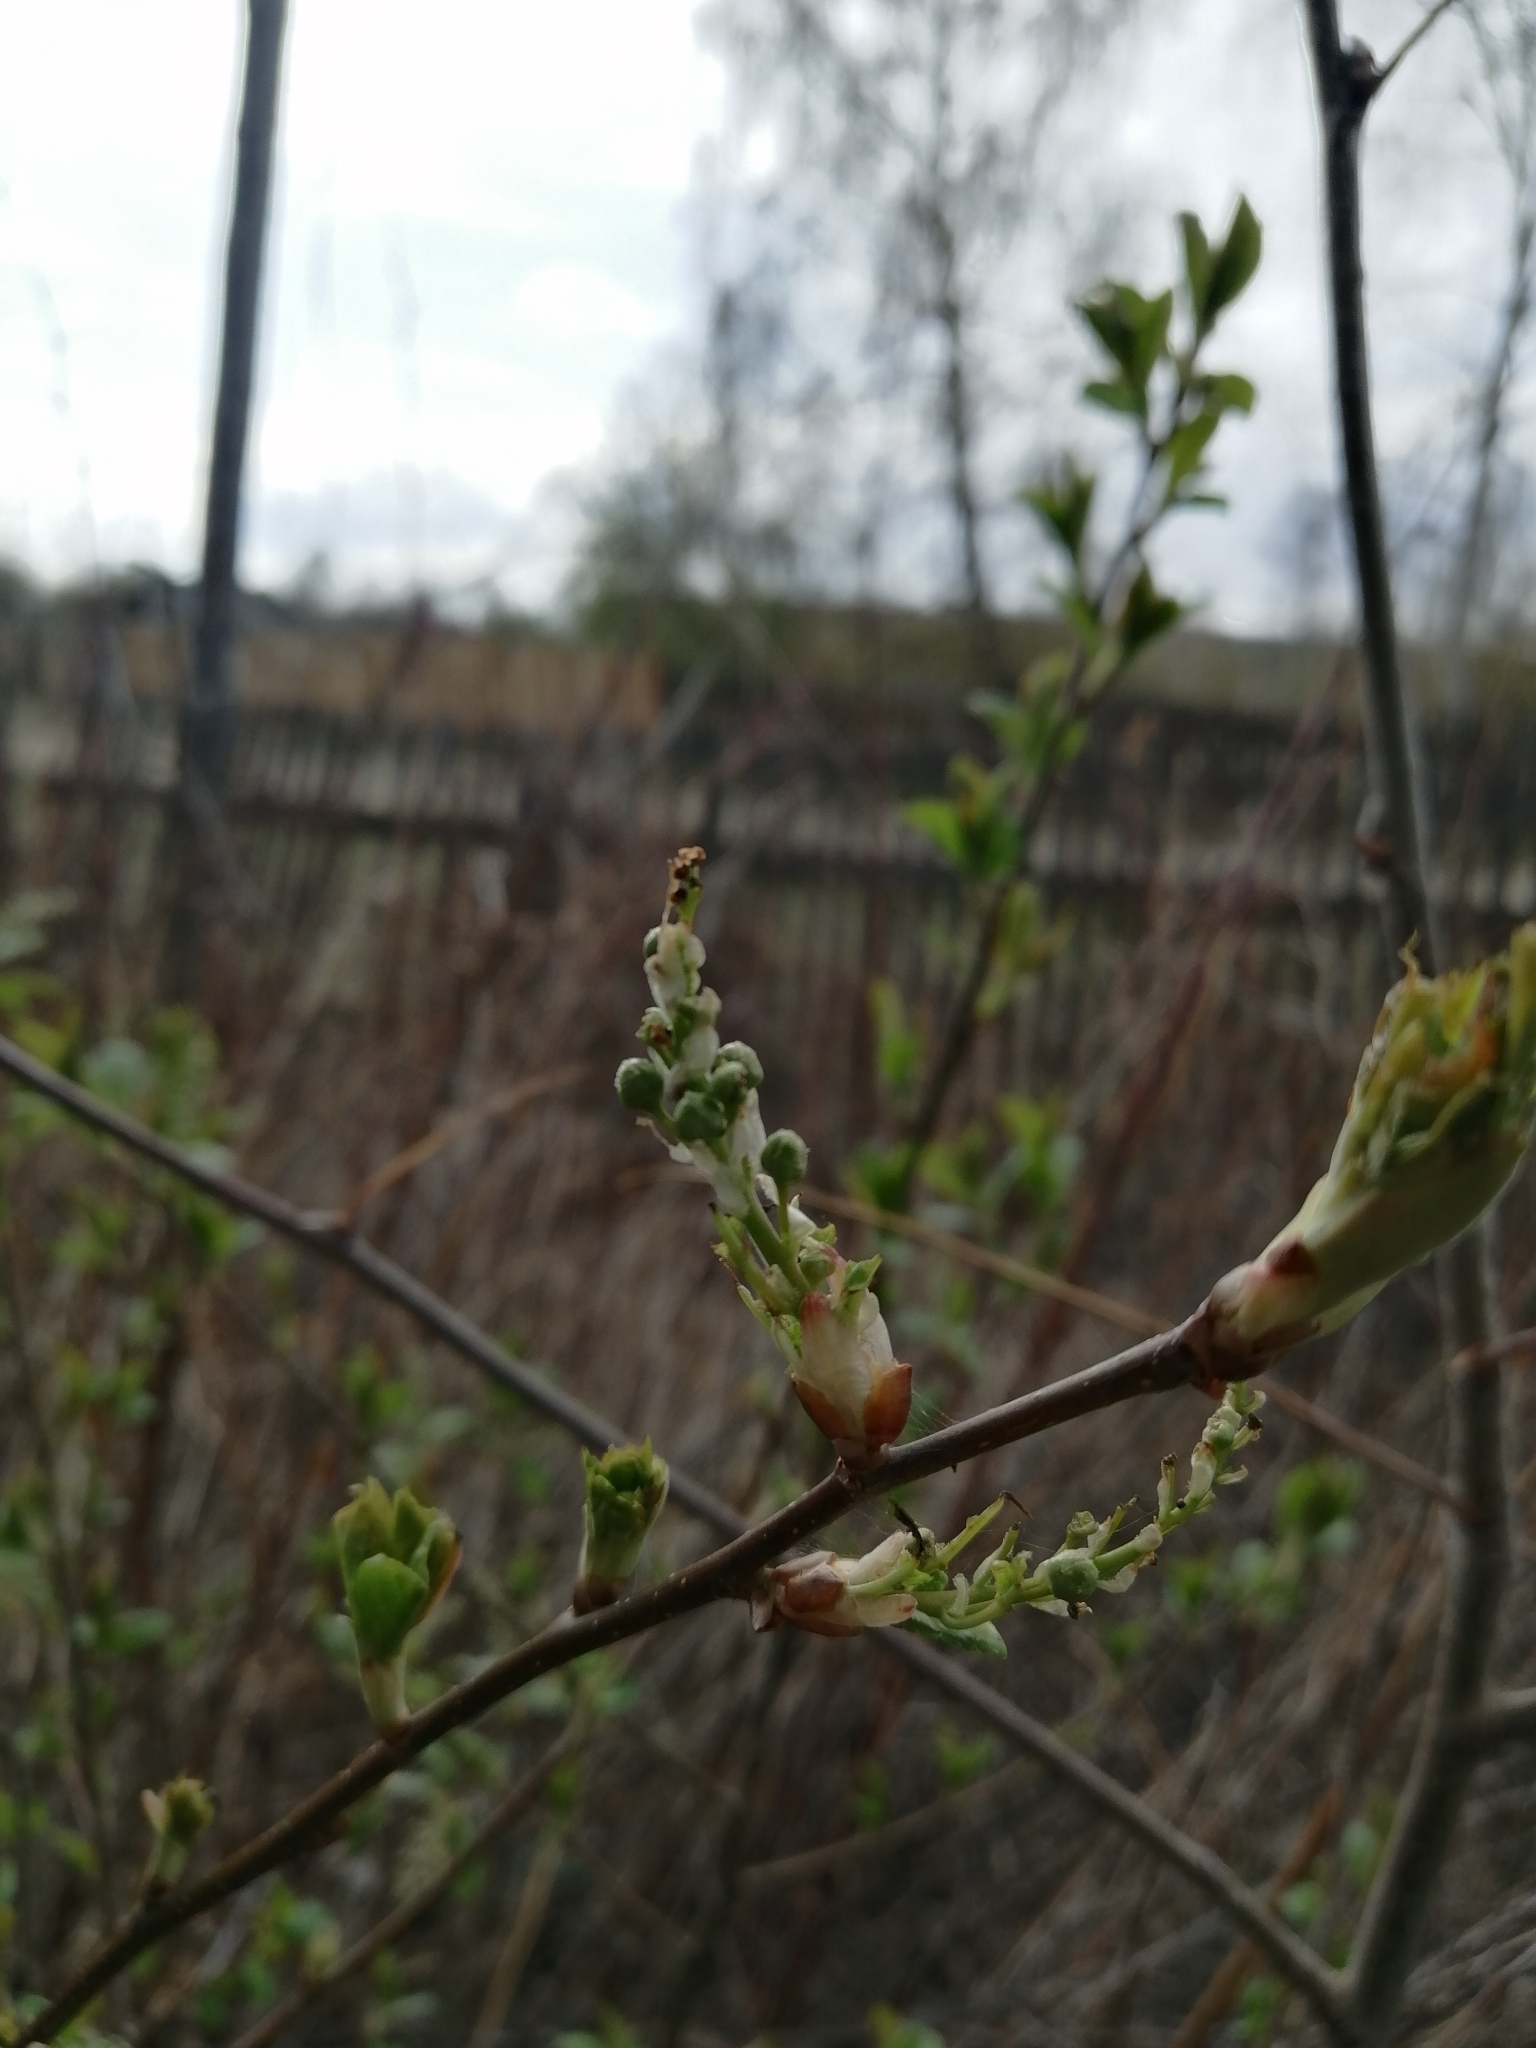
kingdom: Plantae
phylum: Tracheophyta
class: Magnoliopsida
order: Rosales
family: Rosaceae
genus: Prunus
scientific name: Prunus padus
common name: Bird cherry
